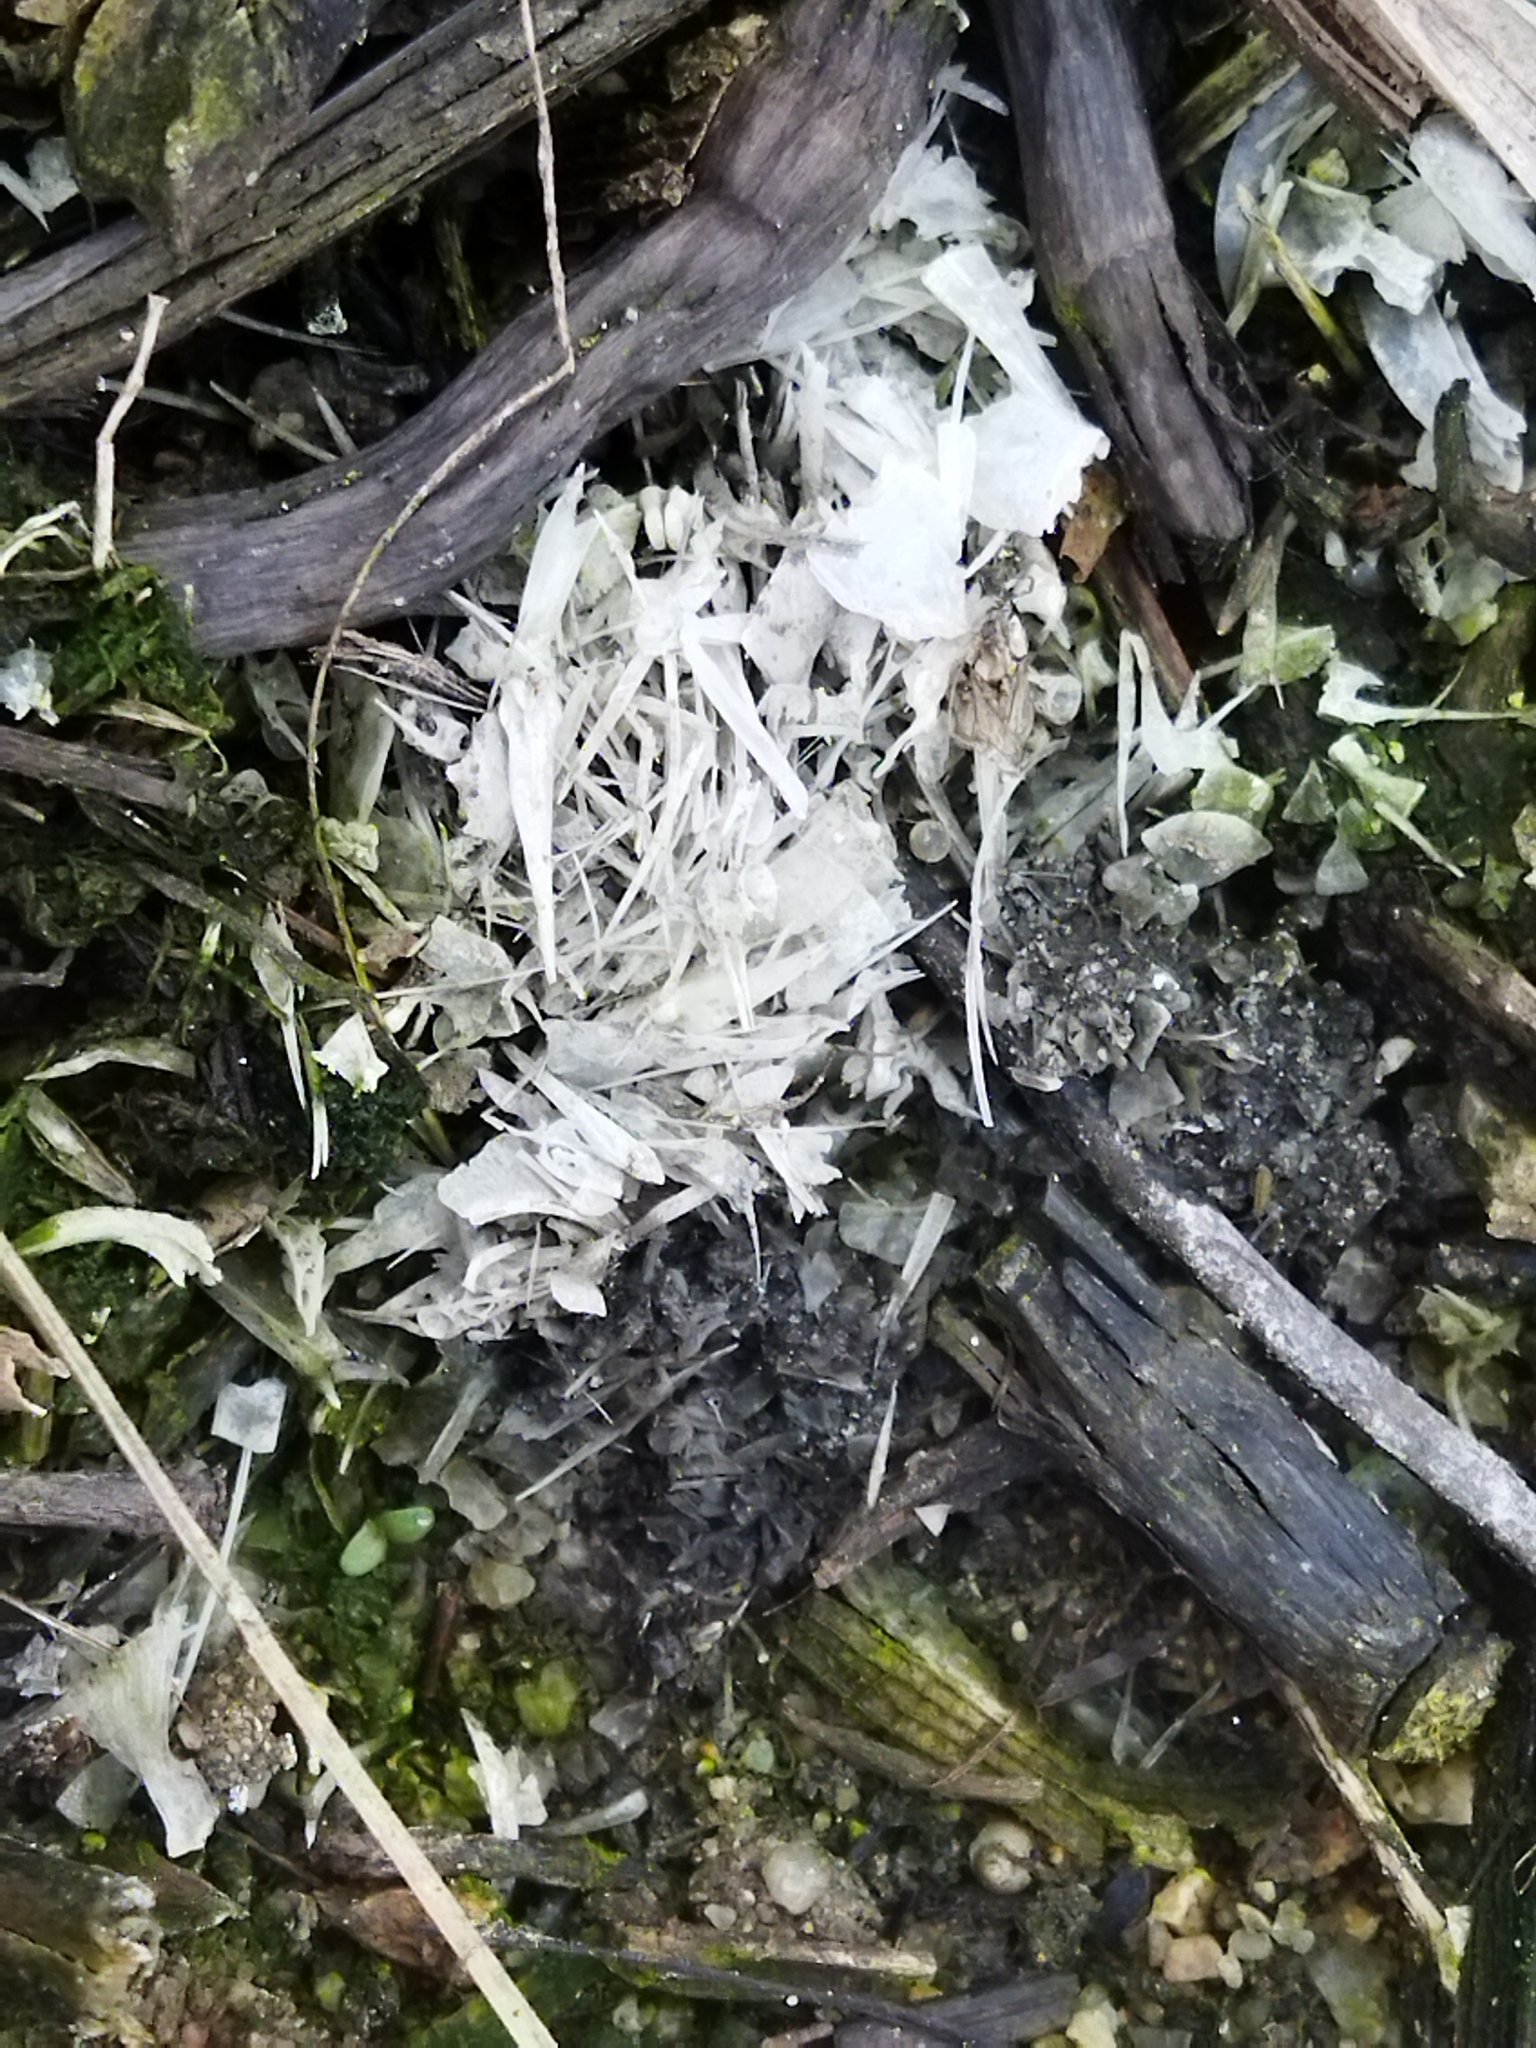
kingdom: Animalia
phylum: Chordata
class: Mammalia
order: Carnivora
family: Mustelidae
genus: Lutra
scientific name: Lutra lutra
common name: European otter
